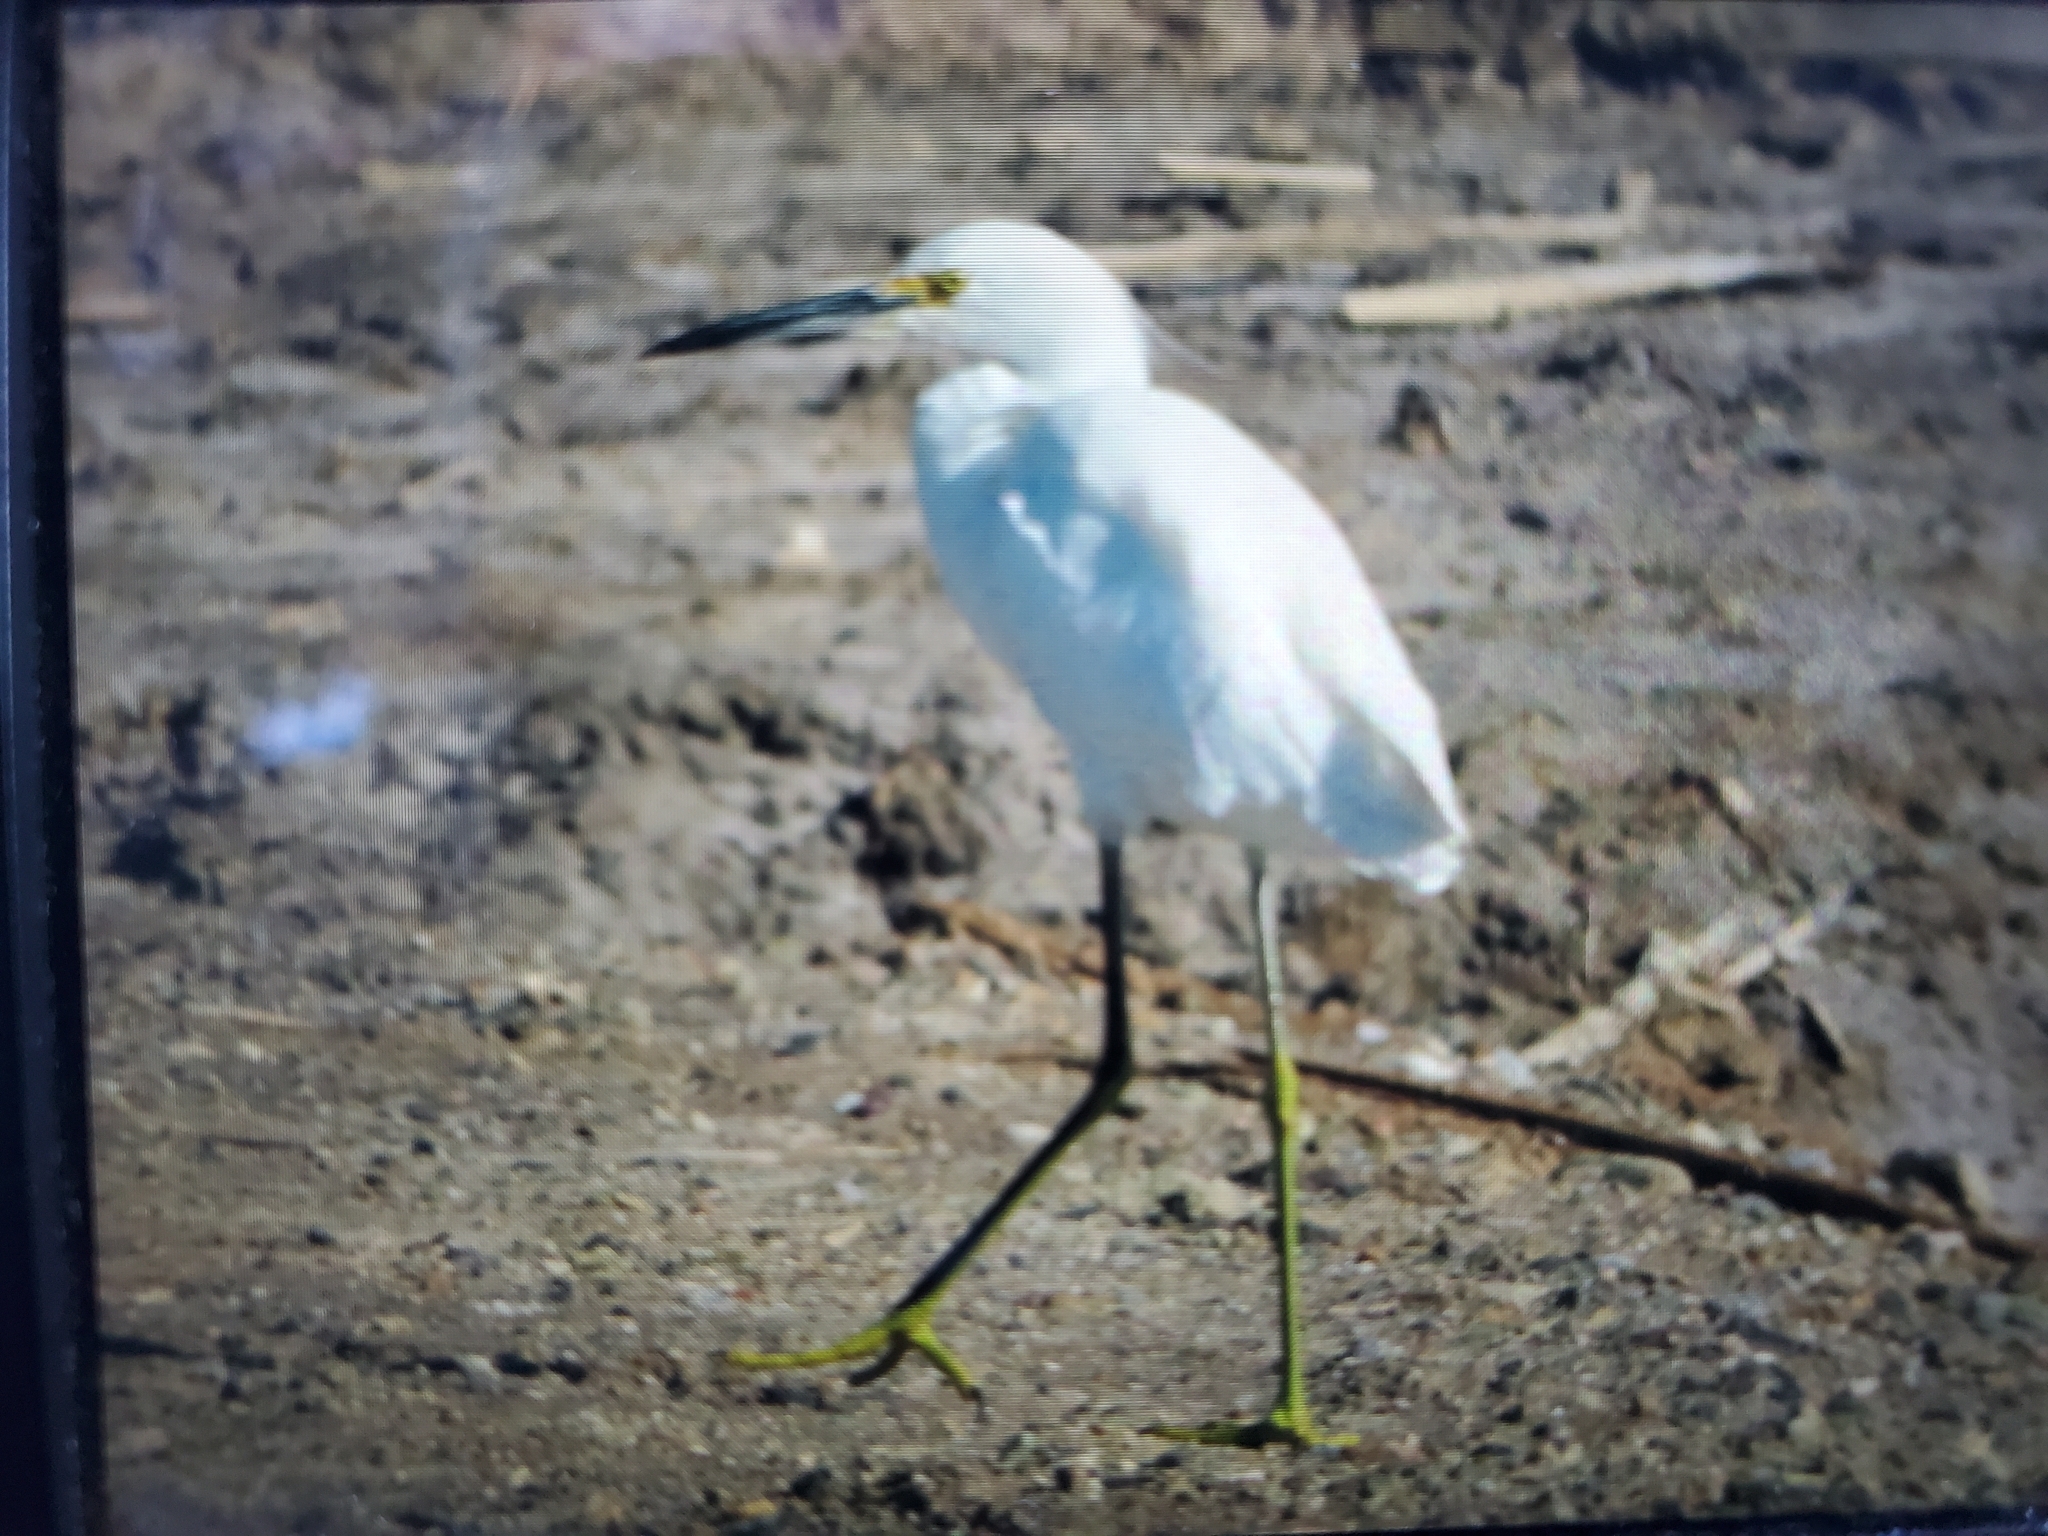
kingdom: Animalia
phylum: Chordata
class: Aves
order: Pelecaniformes
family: Ardeidae
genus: Egretta
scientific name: Egretta thula
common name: Snowy egret
